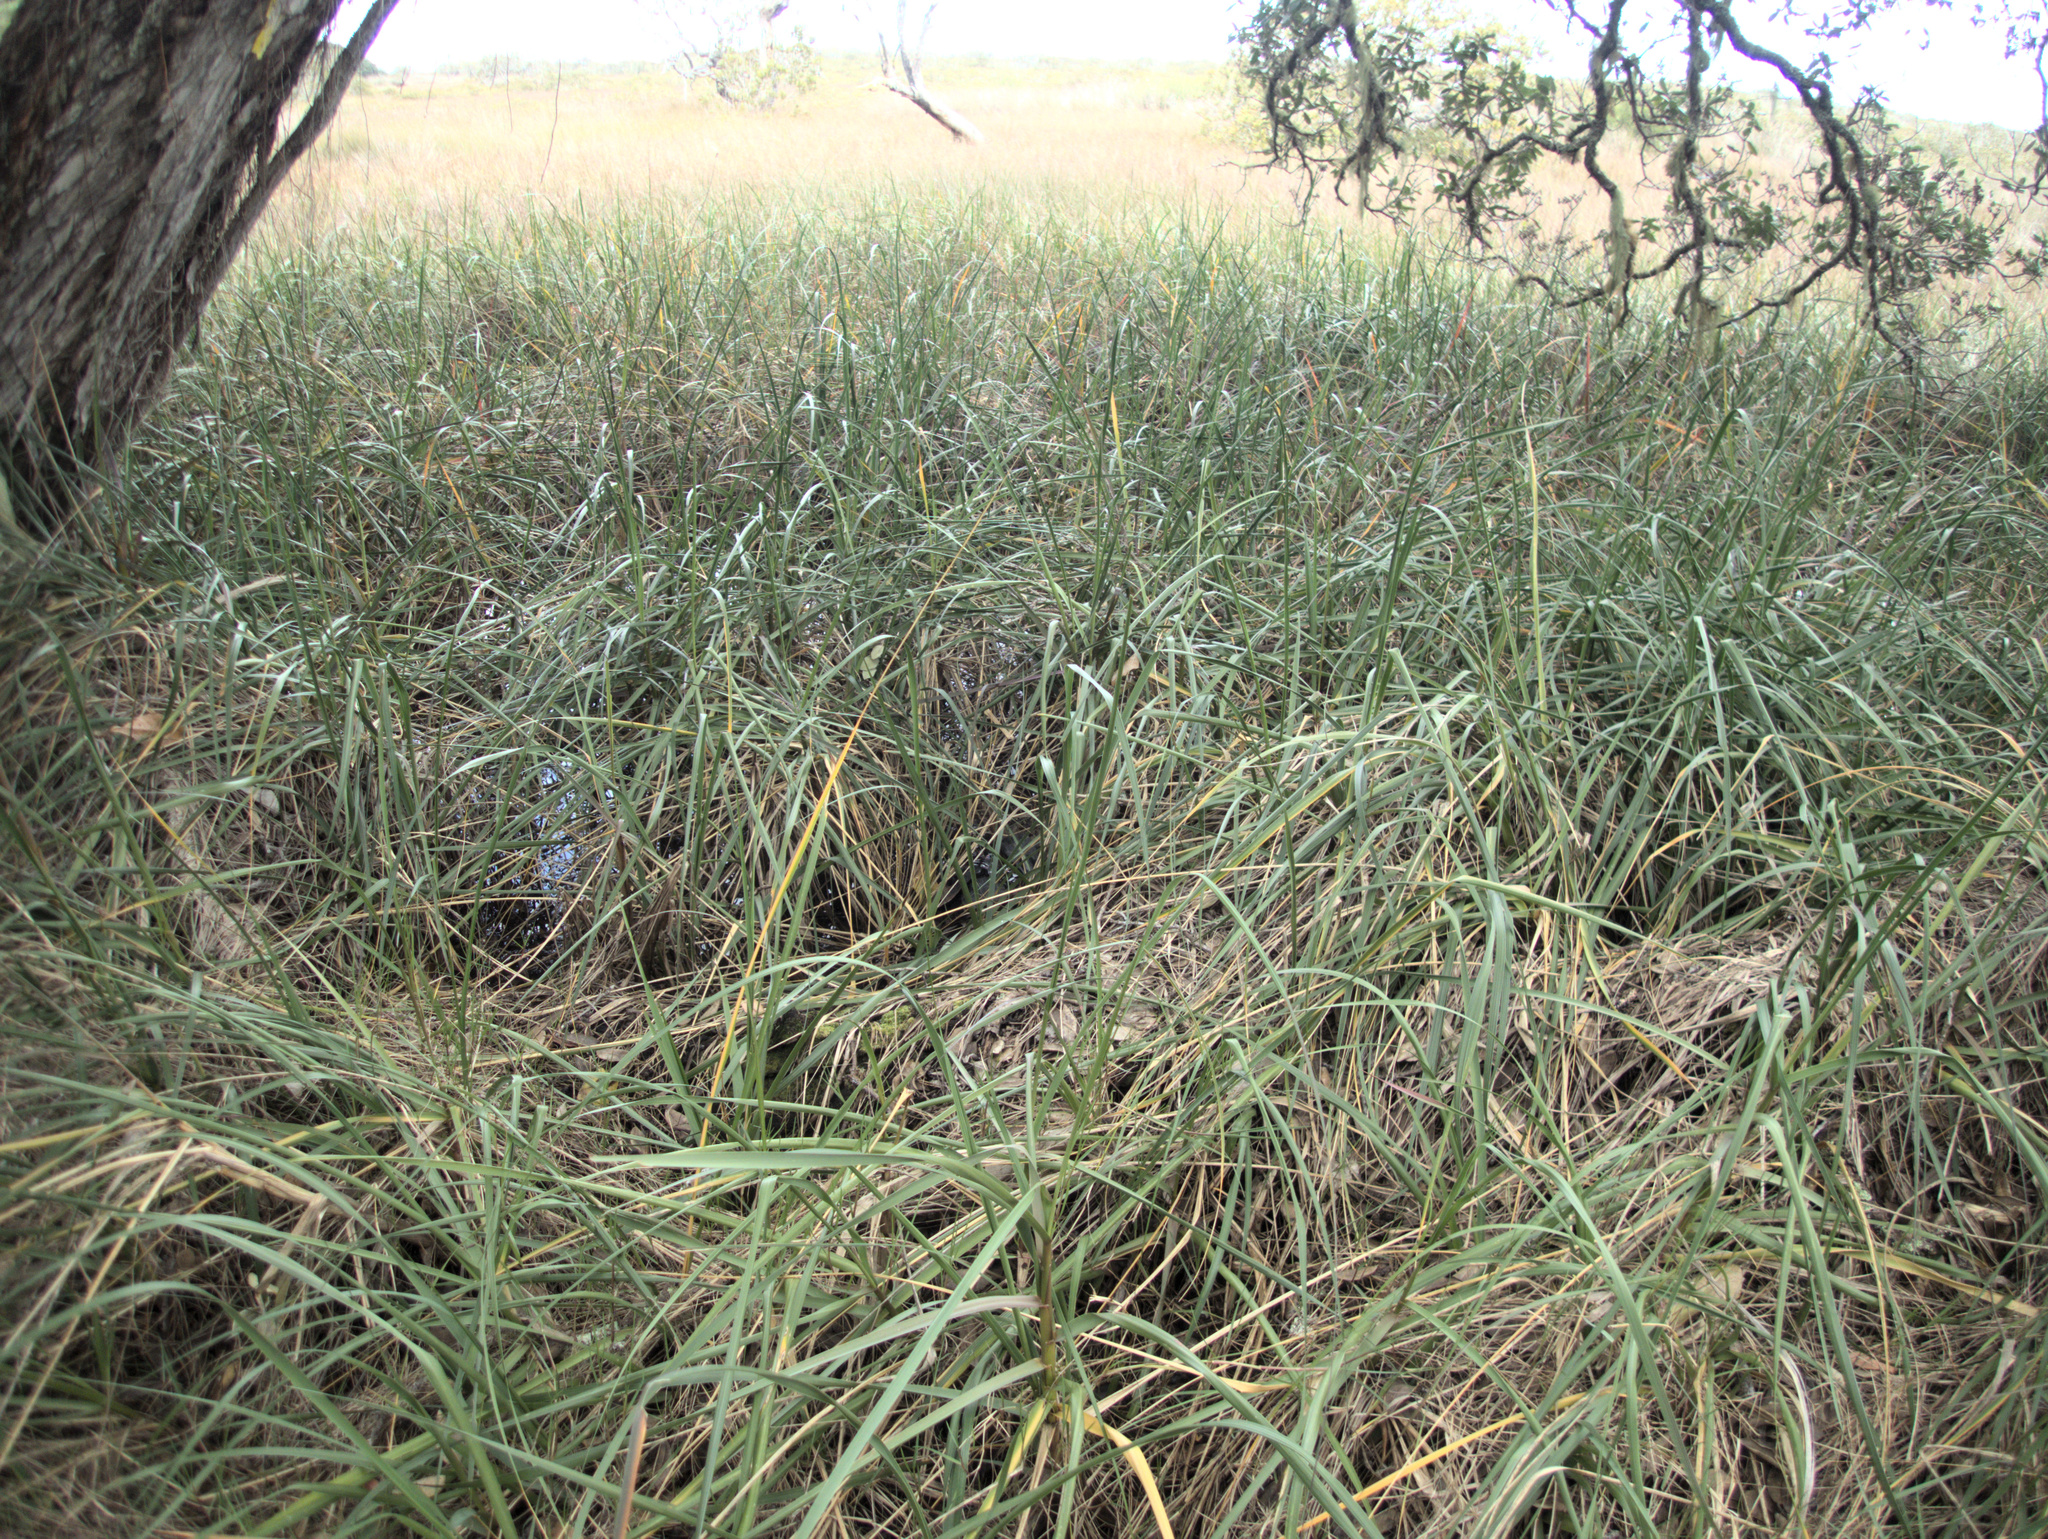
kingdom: Plantae
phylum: Tracheophyta
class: Liliopsida
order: Poales
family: Poaceae
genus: Sporobolus
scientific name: Sporobolus alterniflorus
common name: Atlantic cordgrass
